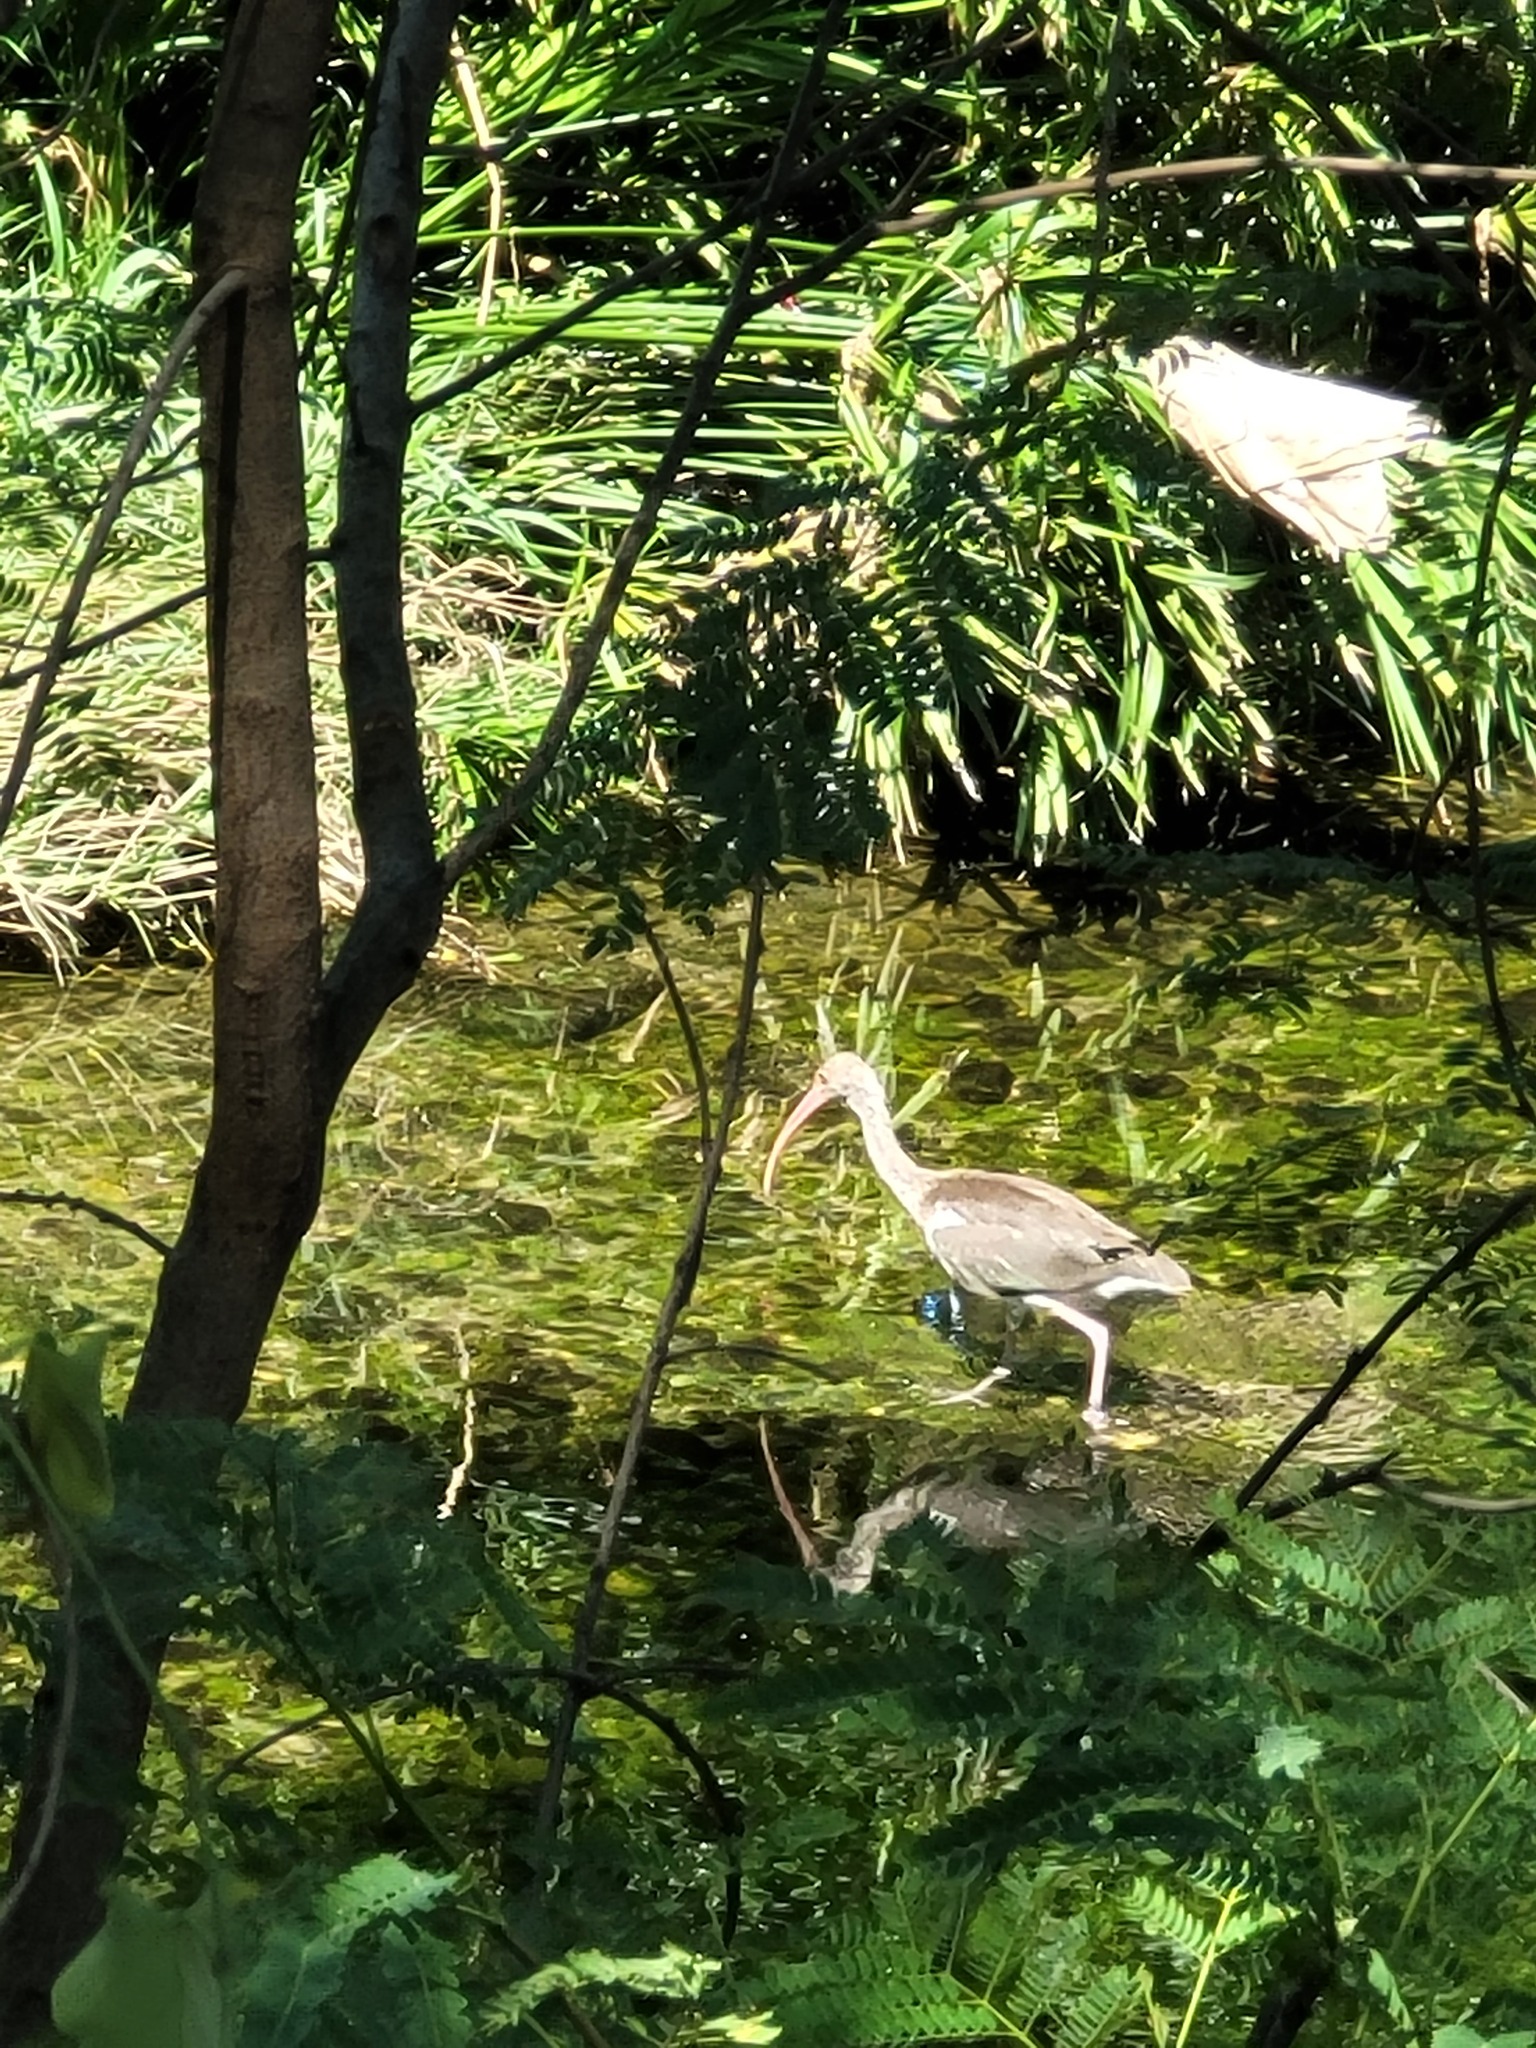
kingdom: Animalia
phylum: Chordata
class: Aves
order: Pelecaniformes
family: Threskiornithidae
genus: Eudocimus
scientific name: Eudocimus albus
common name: White ibis
